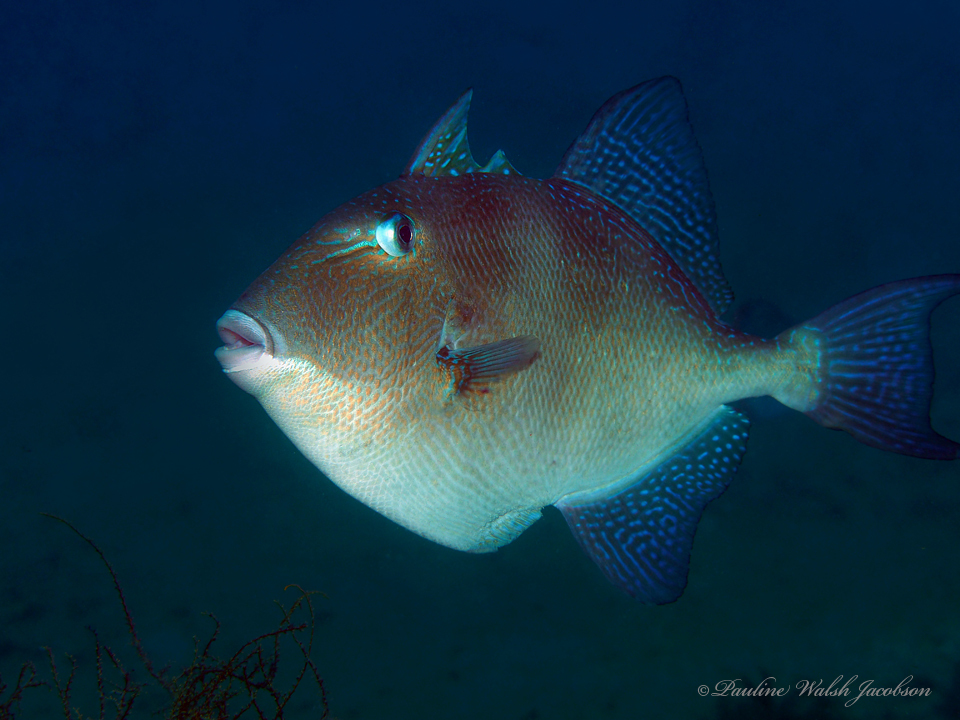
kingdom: Animalia
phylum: Chordata
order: Tetraodontiformes
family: Balistidae
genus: Balistes
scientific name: Balistes capriscus
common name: Grey triggerfish
